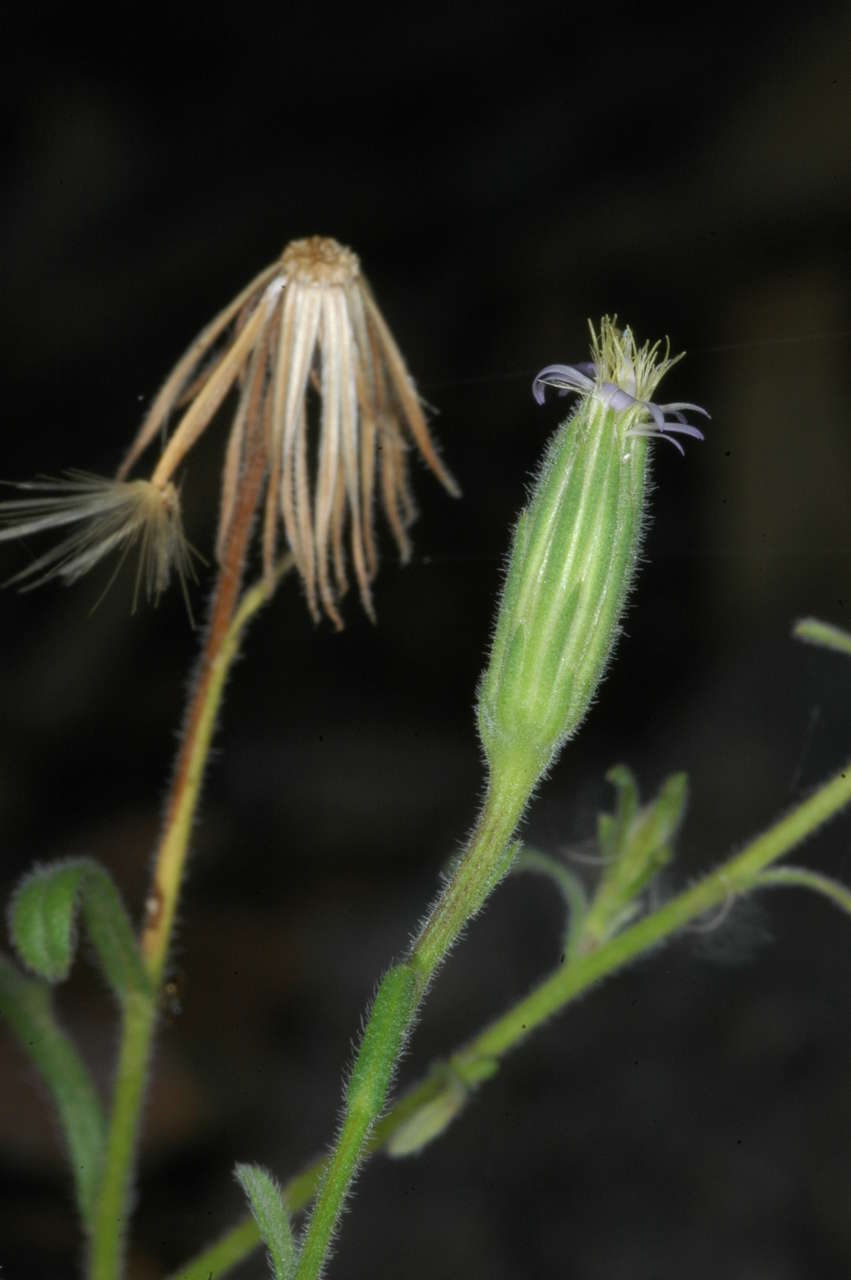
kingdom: Plantae
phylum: Tracheophyta
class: Magnoliopsida
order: Asterales
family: Asteraceae
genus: Vittadinia
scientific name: Vittadinia cervicularis
